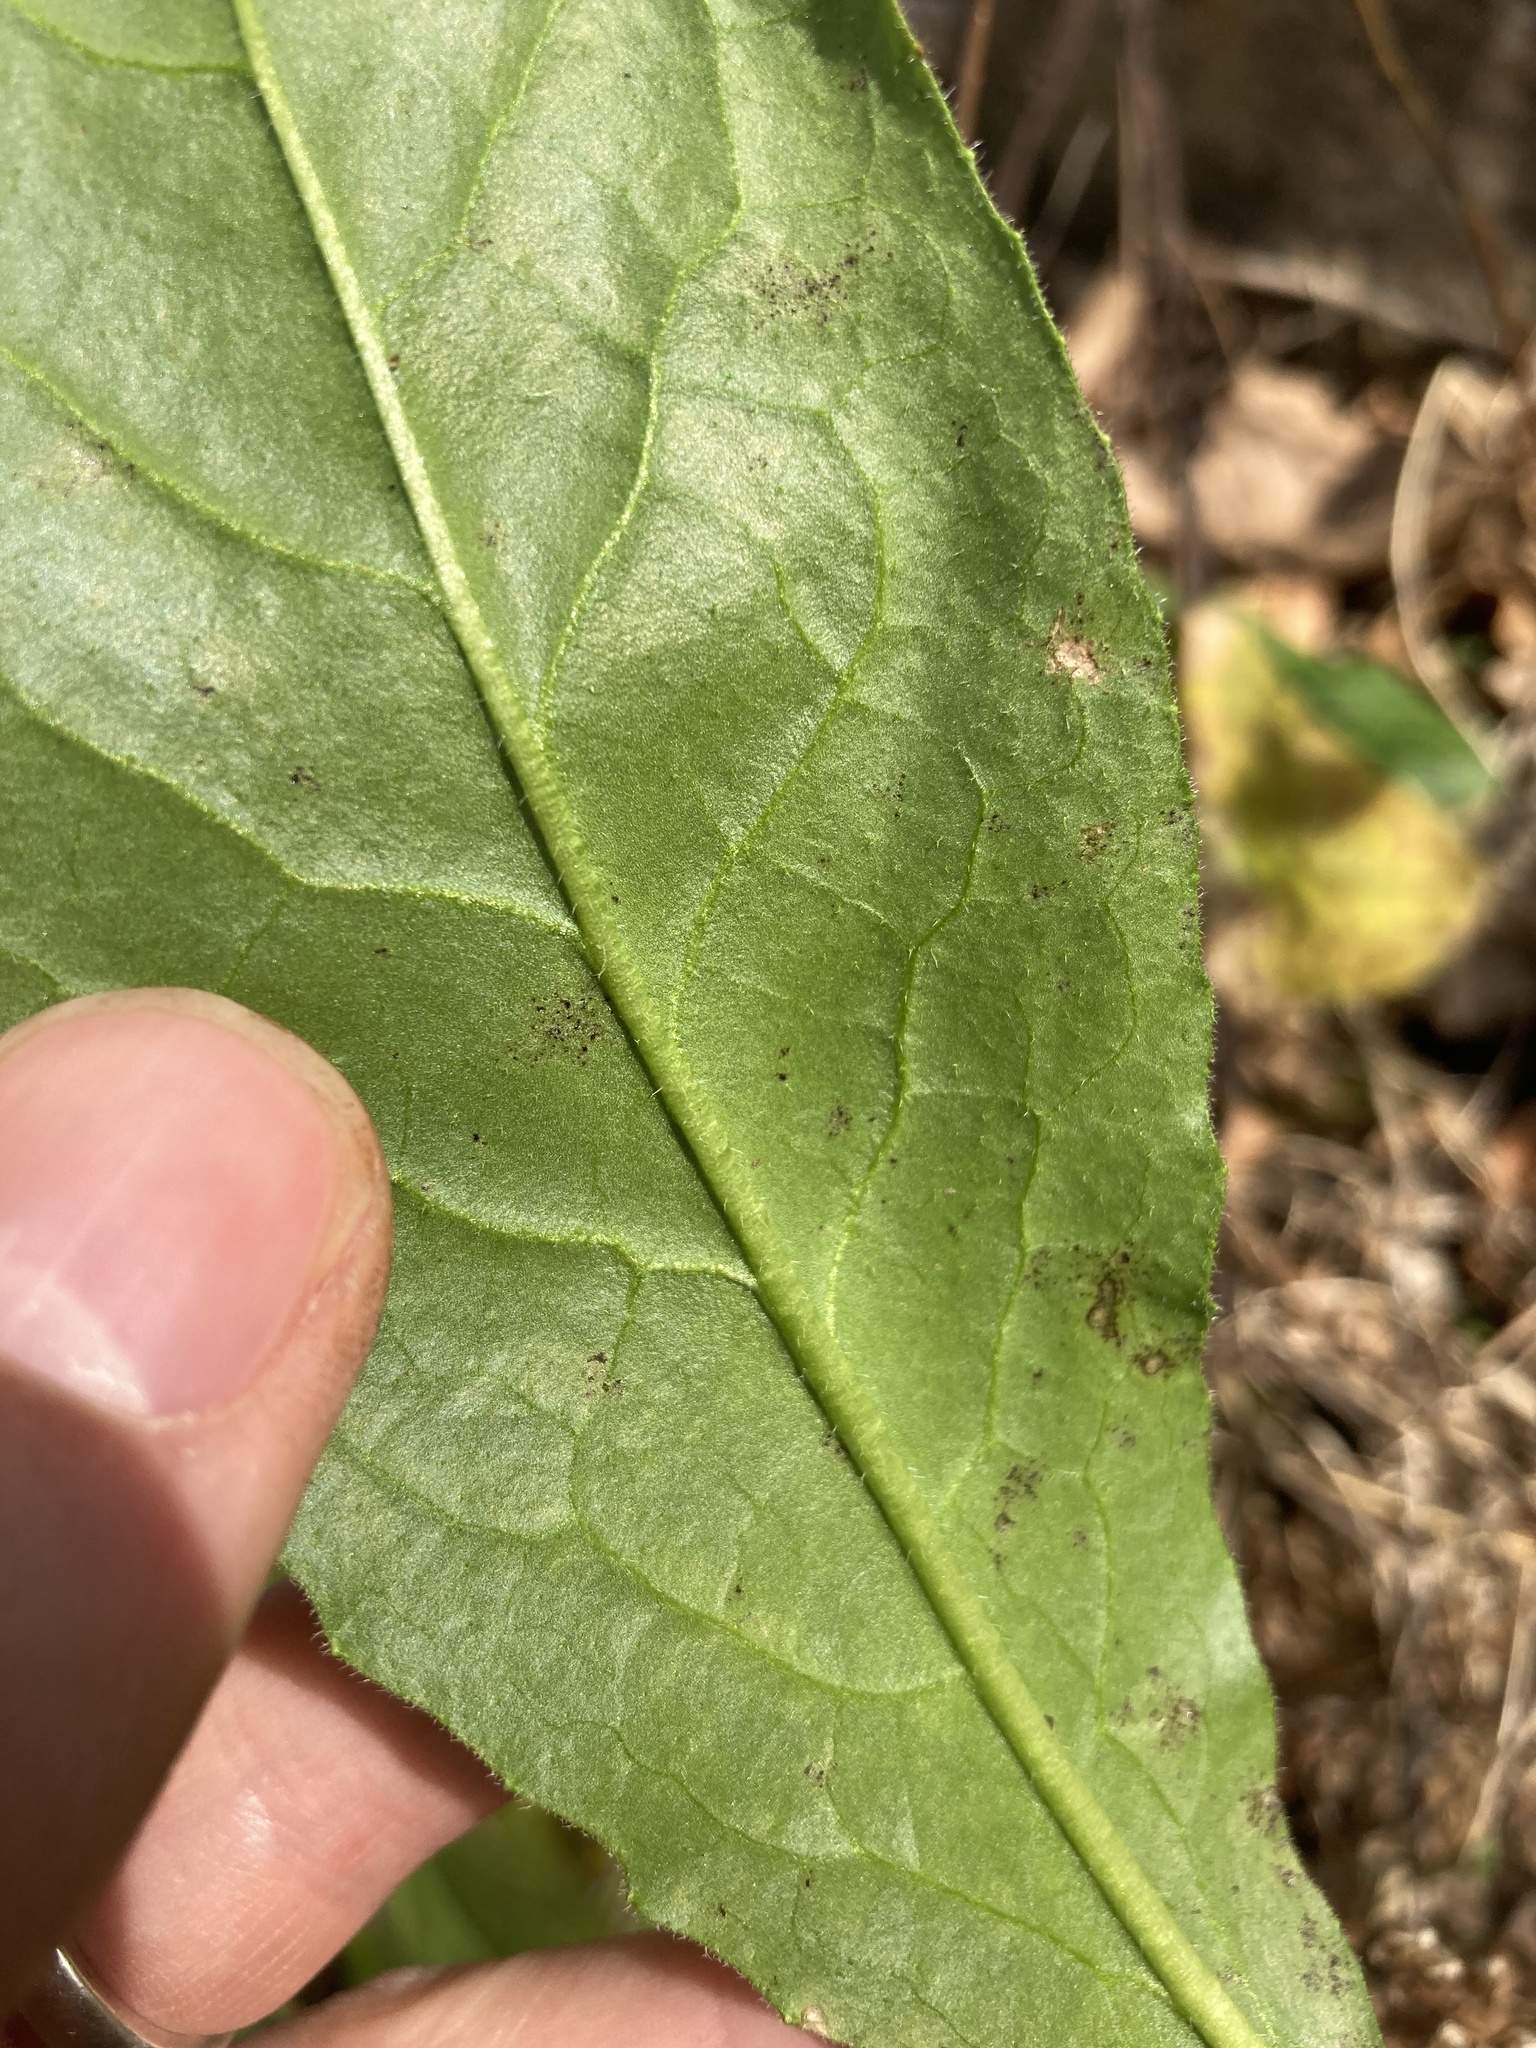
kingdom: Plantae
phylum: Tracheophyta
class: Magnoliopsida
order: Brassicales
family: Brassicaceae
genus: Hesperis
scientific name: Hesperis matronalis
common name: Dame's-violet
